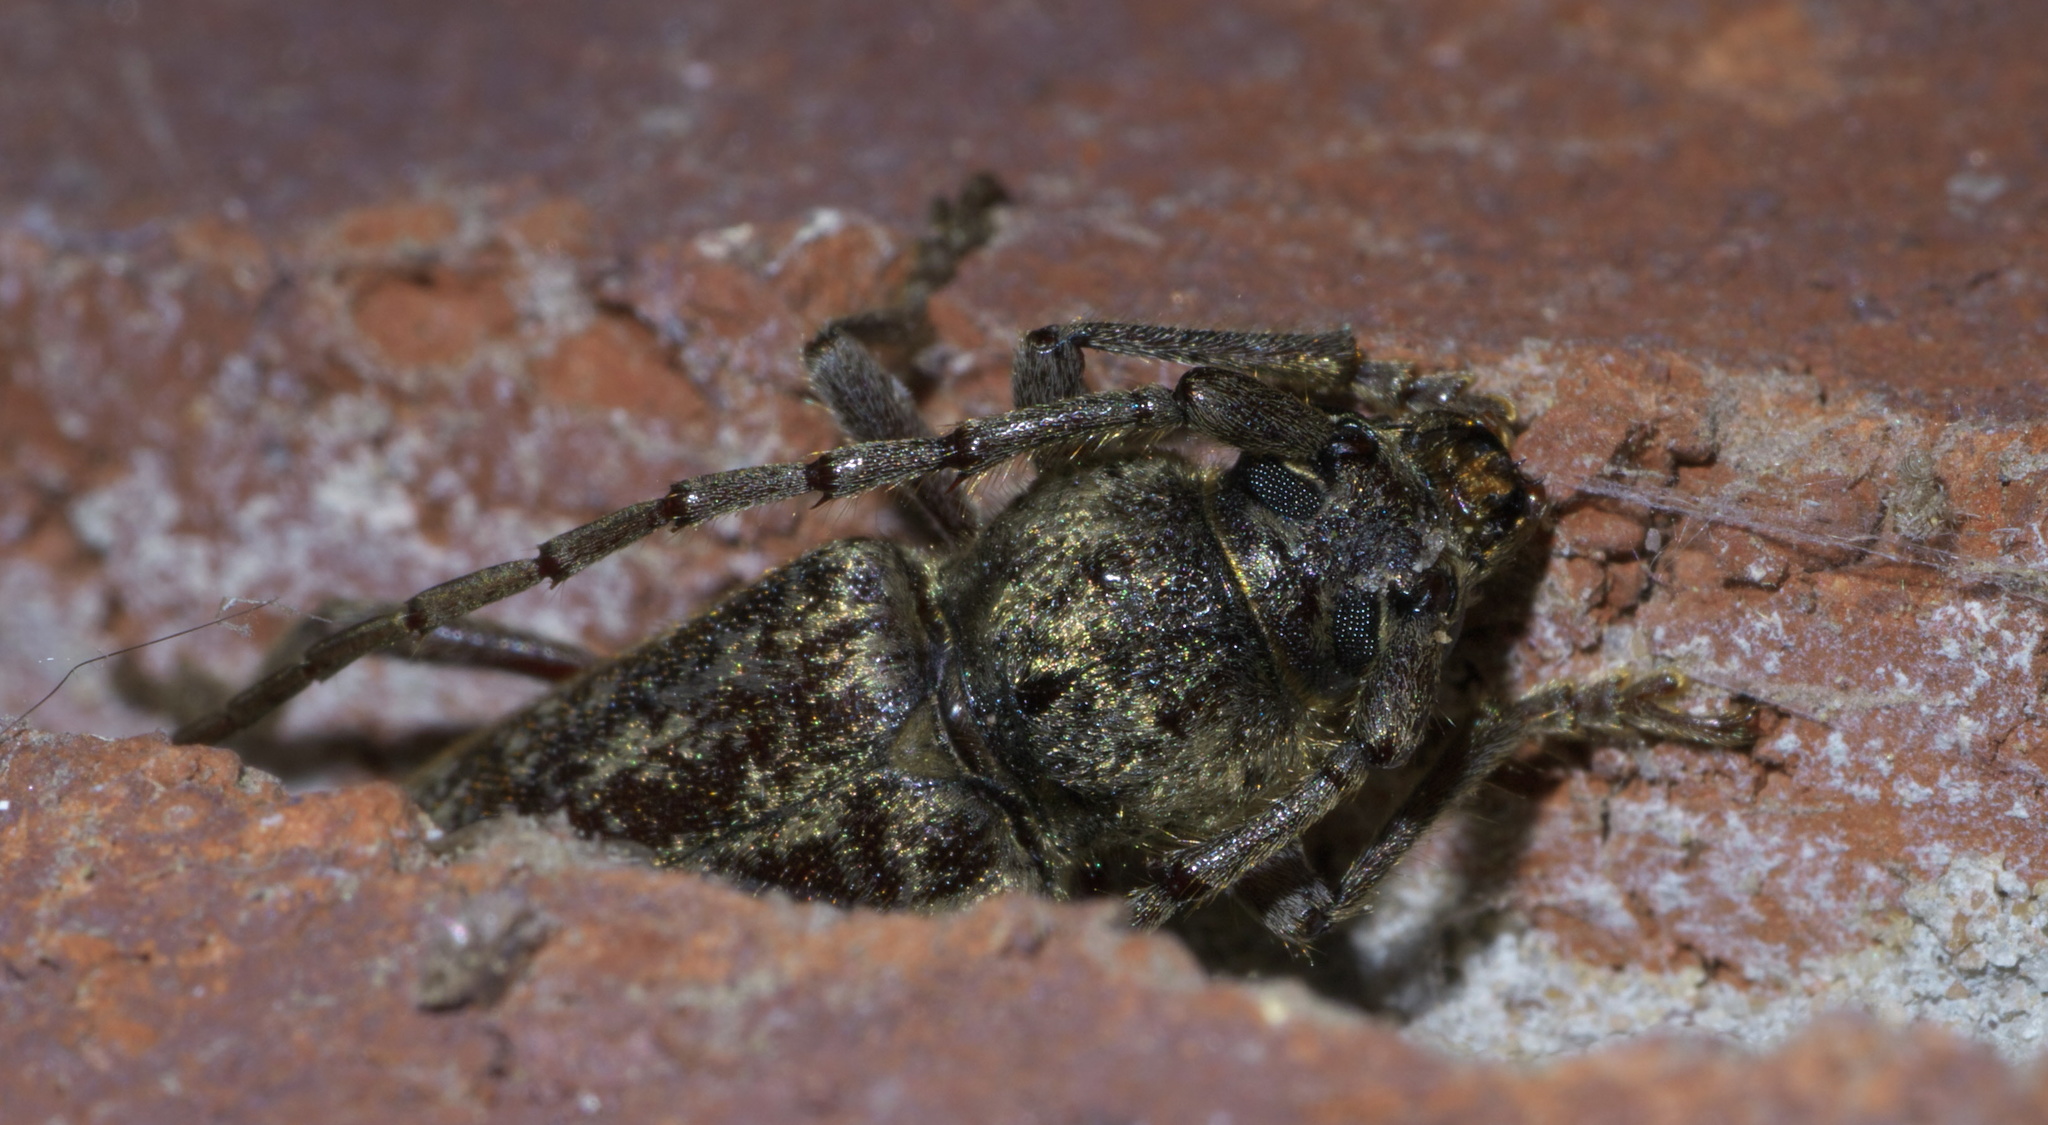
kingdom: Animalia
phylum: Arthropoda
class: Insecta
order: Coleoptera
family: Cerambycidae
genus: Enaphalodes
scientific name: Enaphalodes atomarius
